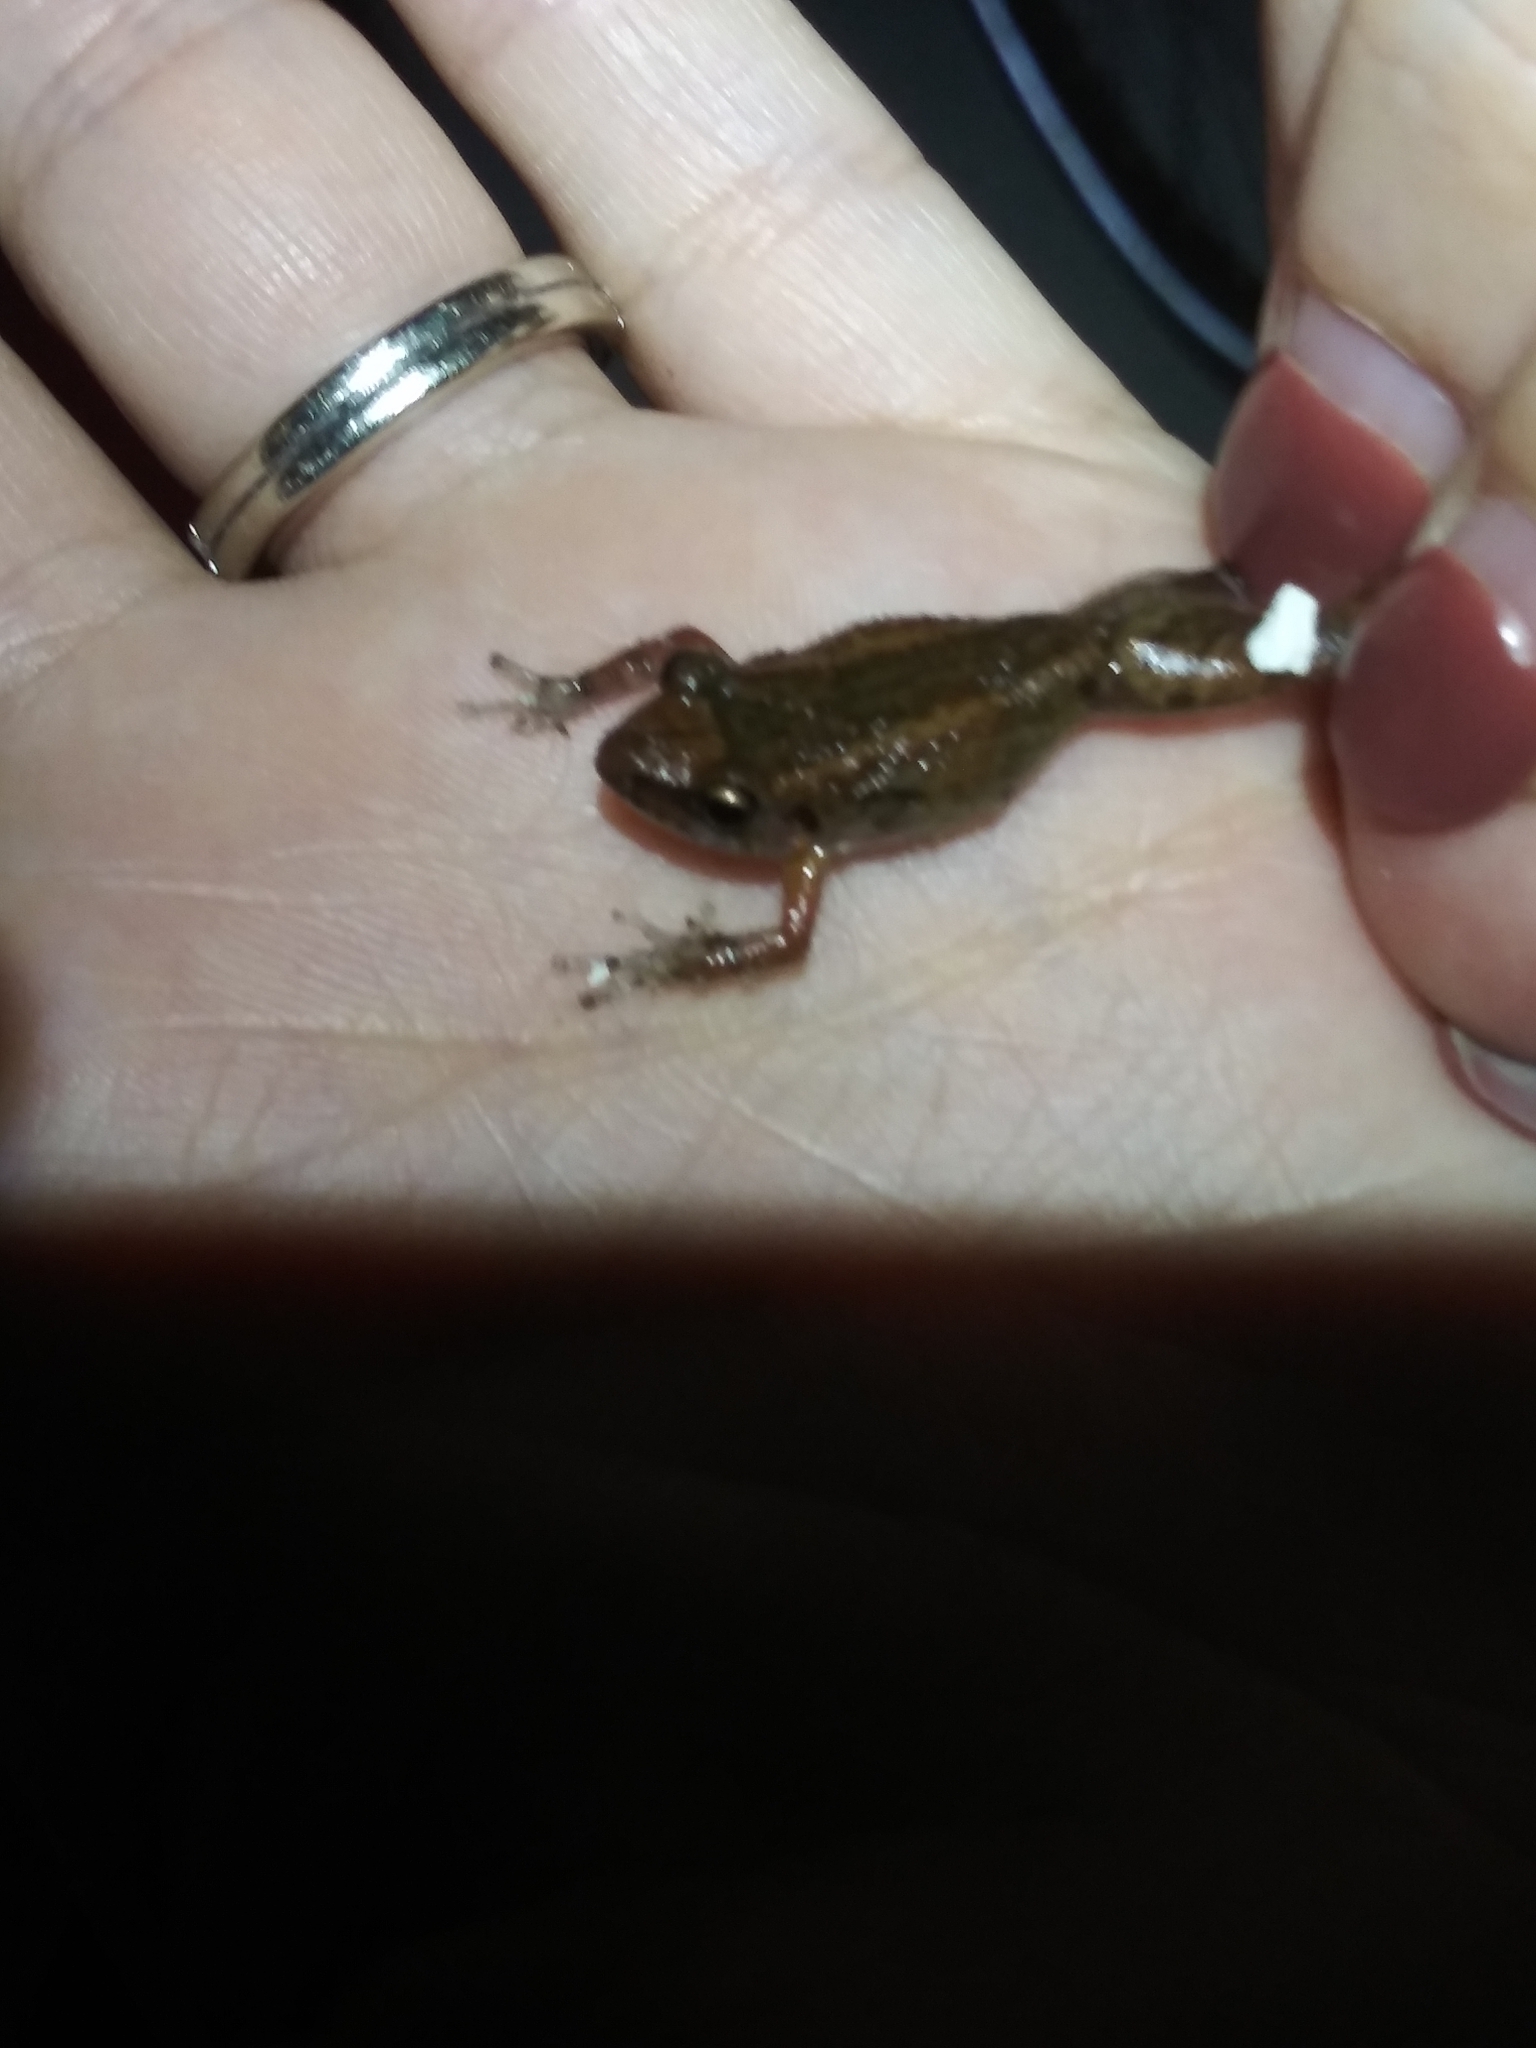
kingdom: Animalia
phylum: Chordata
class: Amphibia
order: Anura
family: Eleutherodactylidae
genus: Eleutherodactylus
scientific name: Eleutherodactylus planirostris
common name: Greenhouse frog
